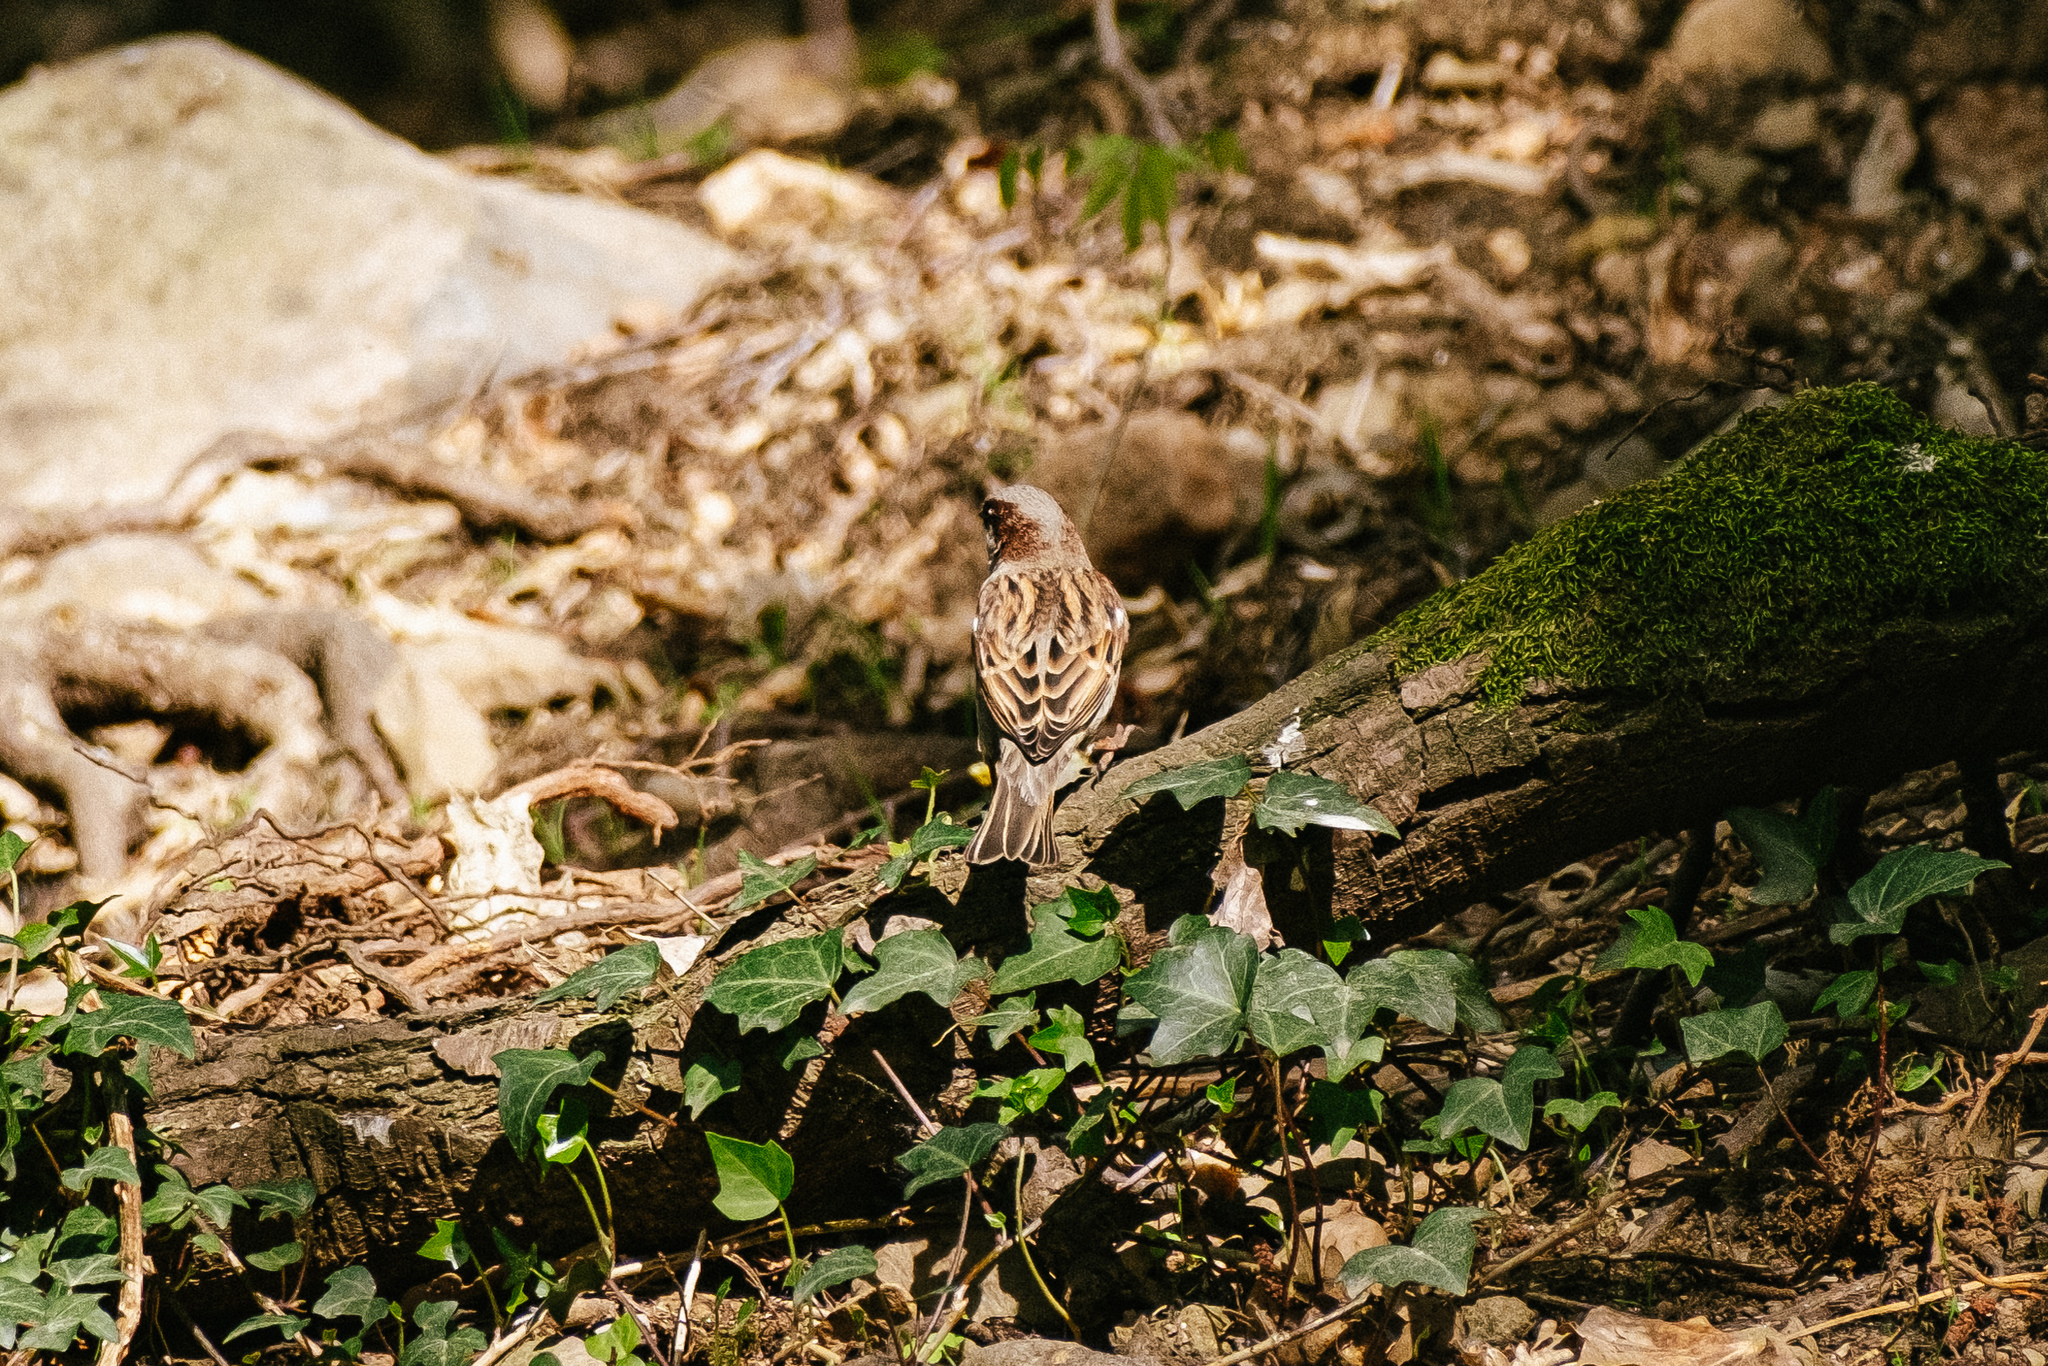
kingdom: Animalia
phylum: Chordata
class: Aves
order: Passeriformes
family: Passeridae
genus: Passer
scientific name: Passer domesticus
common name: House sparrow
